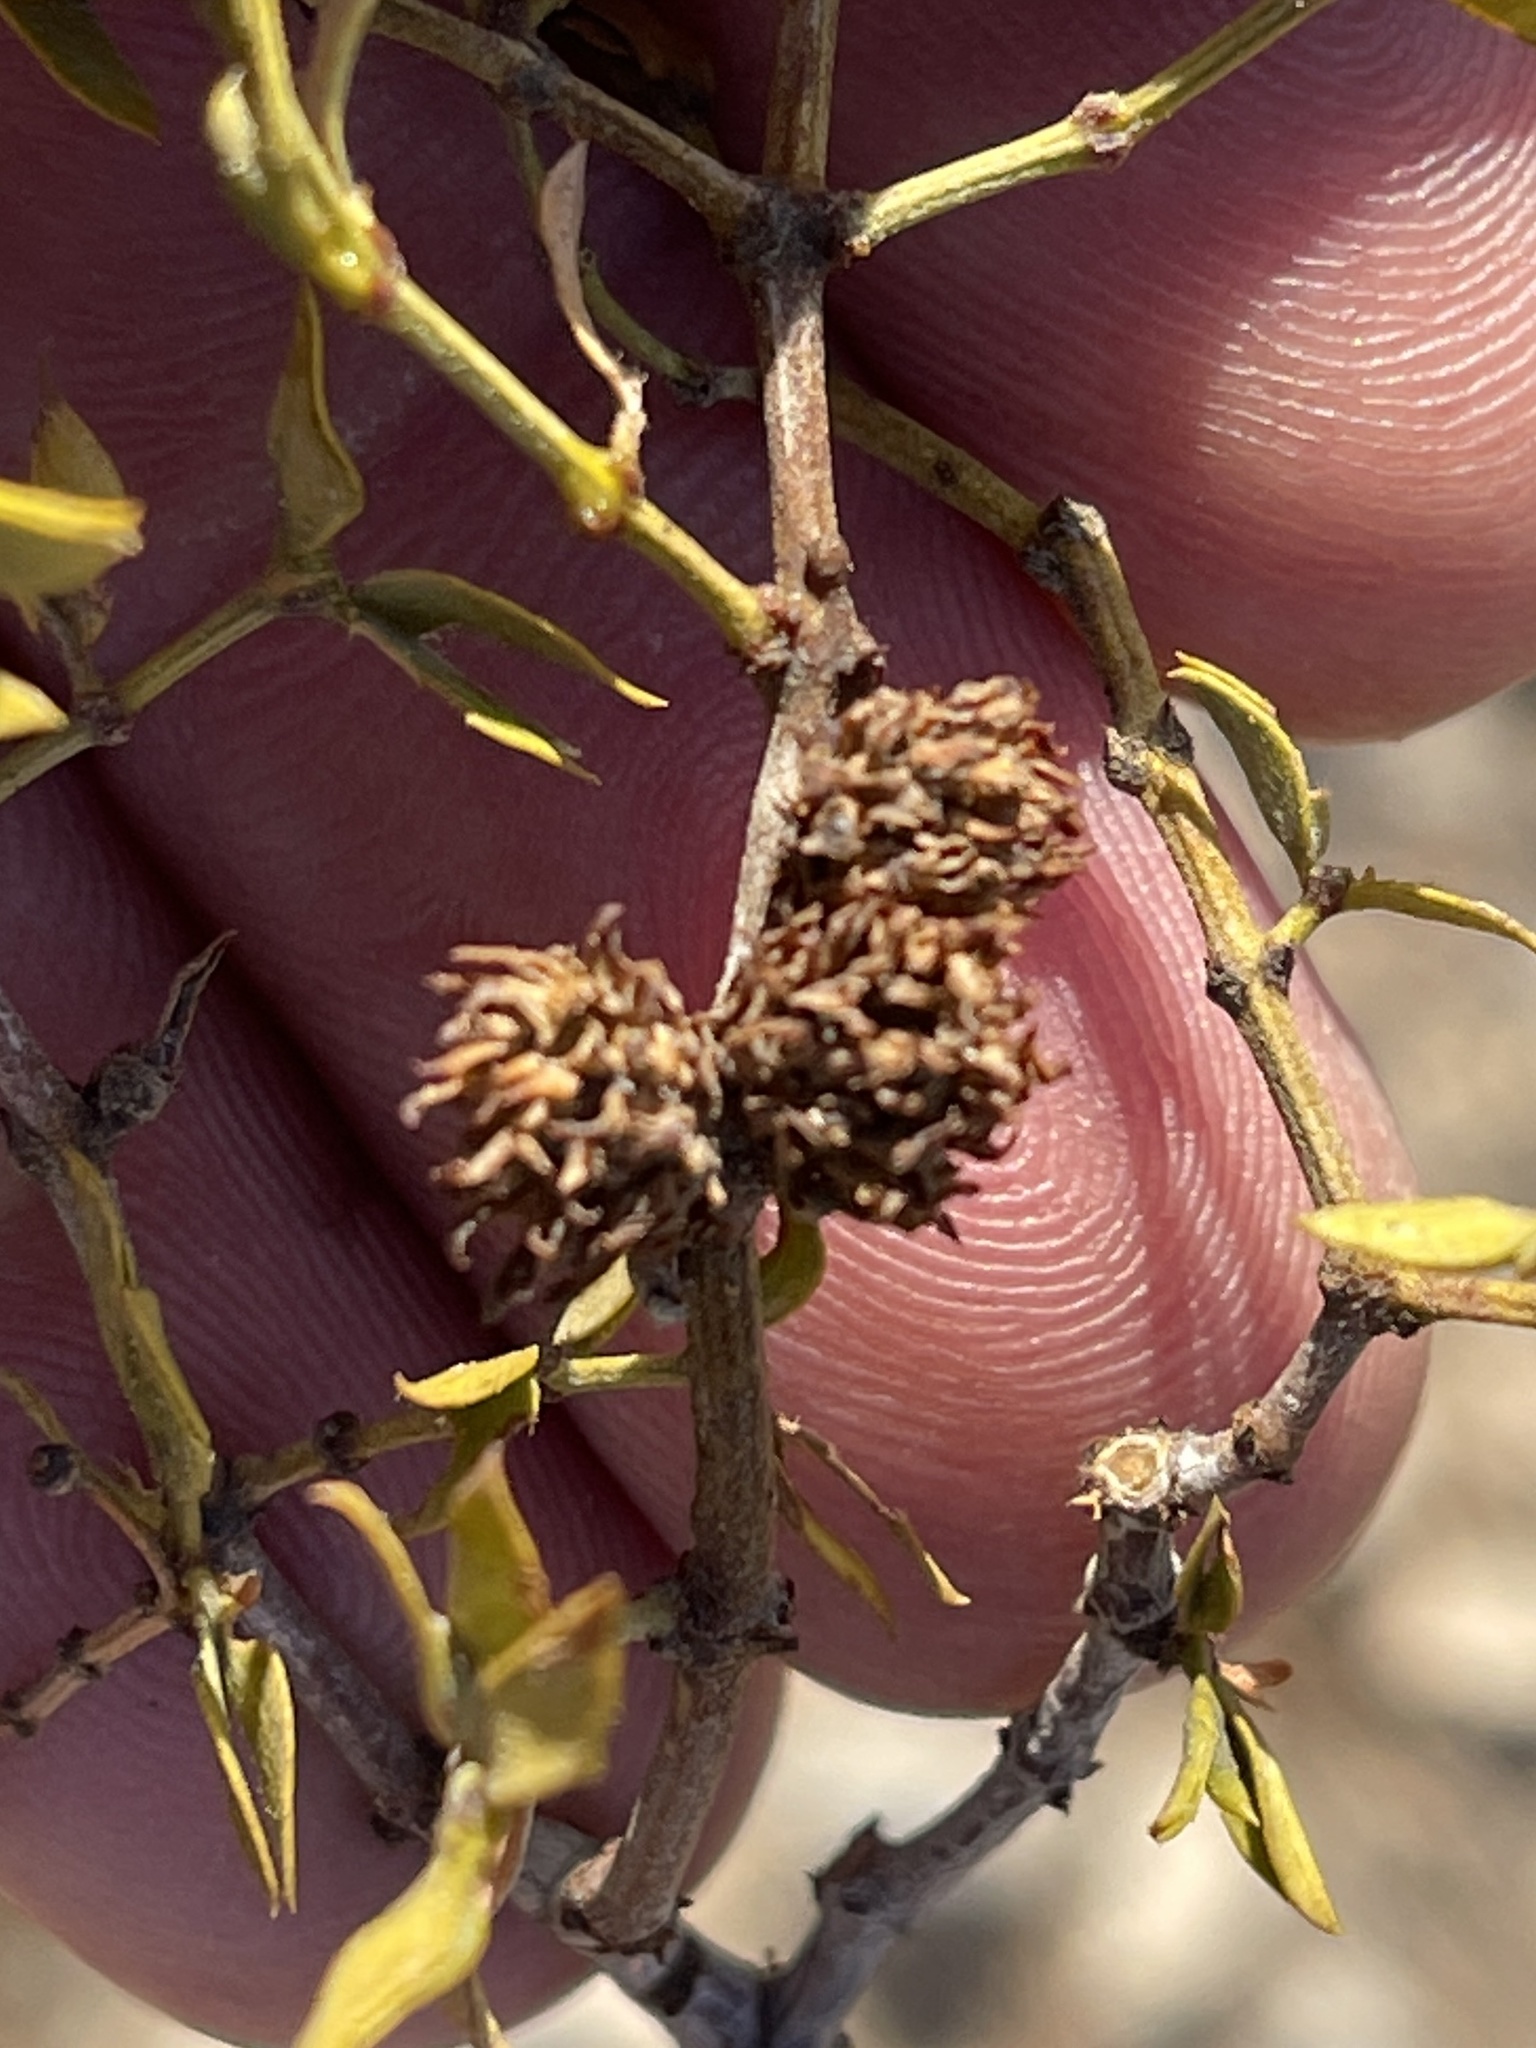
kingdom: Animalia
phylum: Arthropoda
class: Insecta
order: Diptera
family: Cecidomyiidae
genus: Asphondylia
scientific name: Asphondylia rosetta
